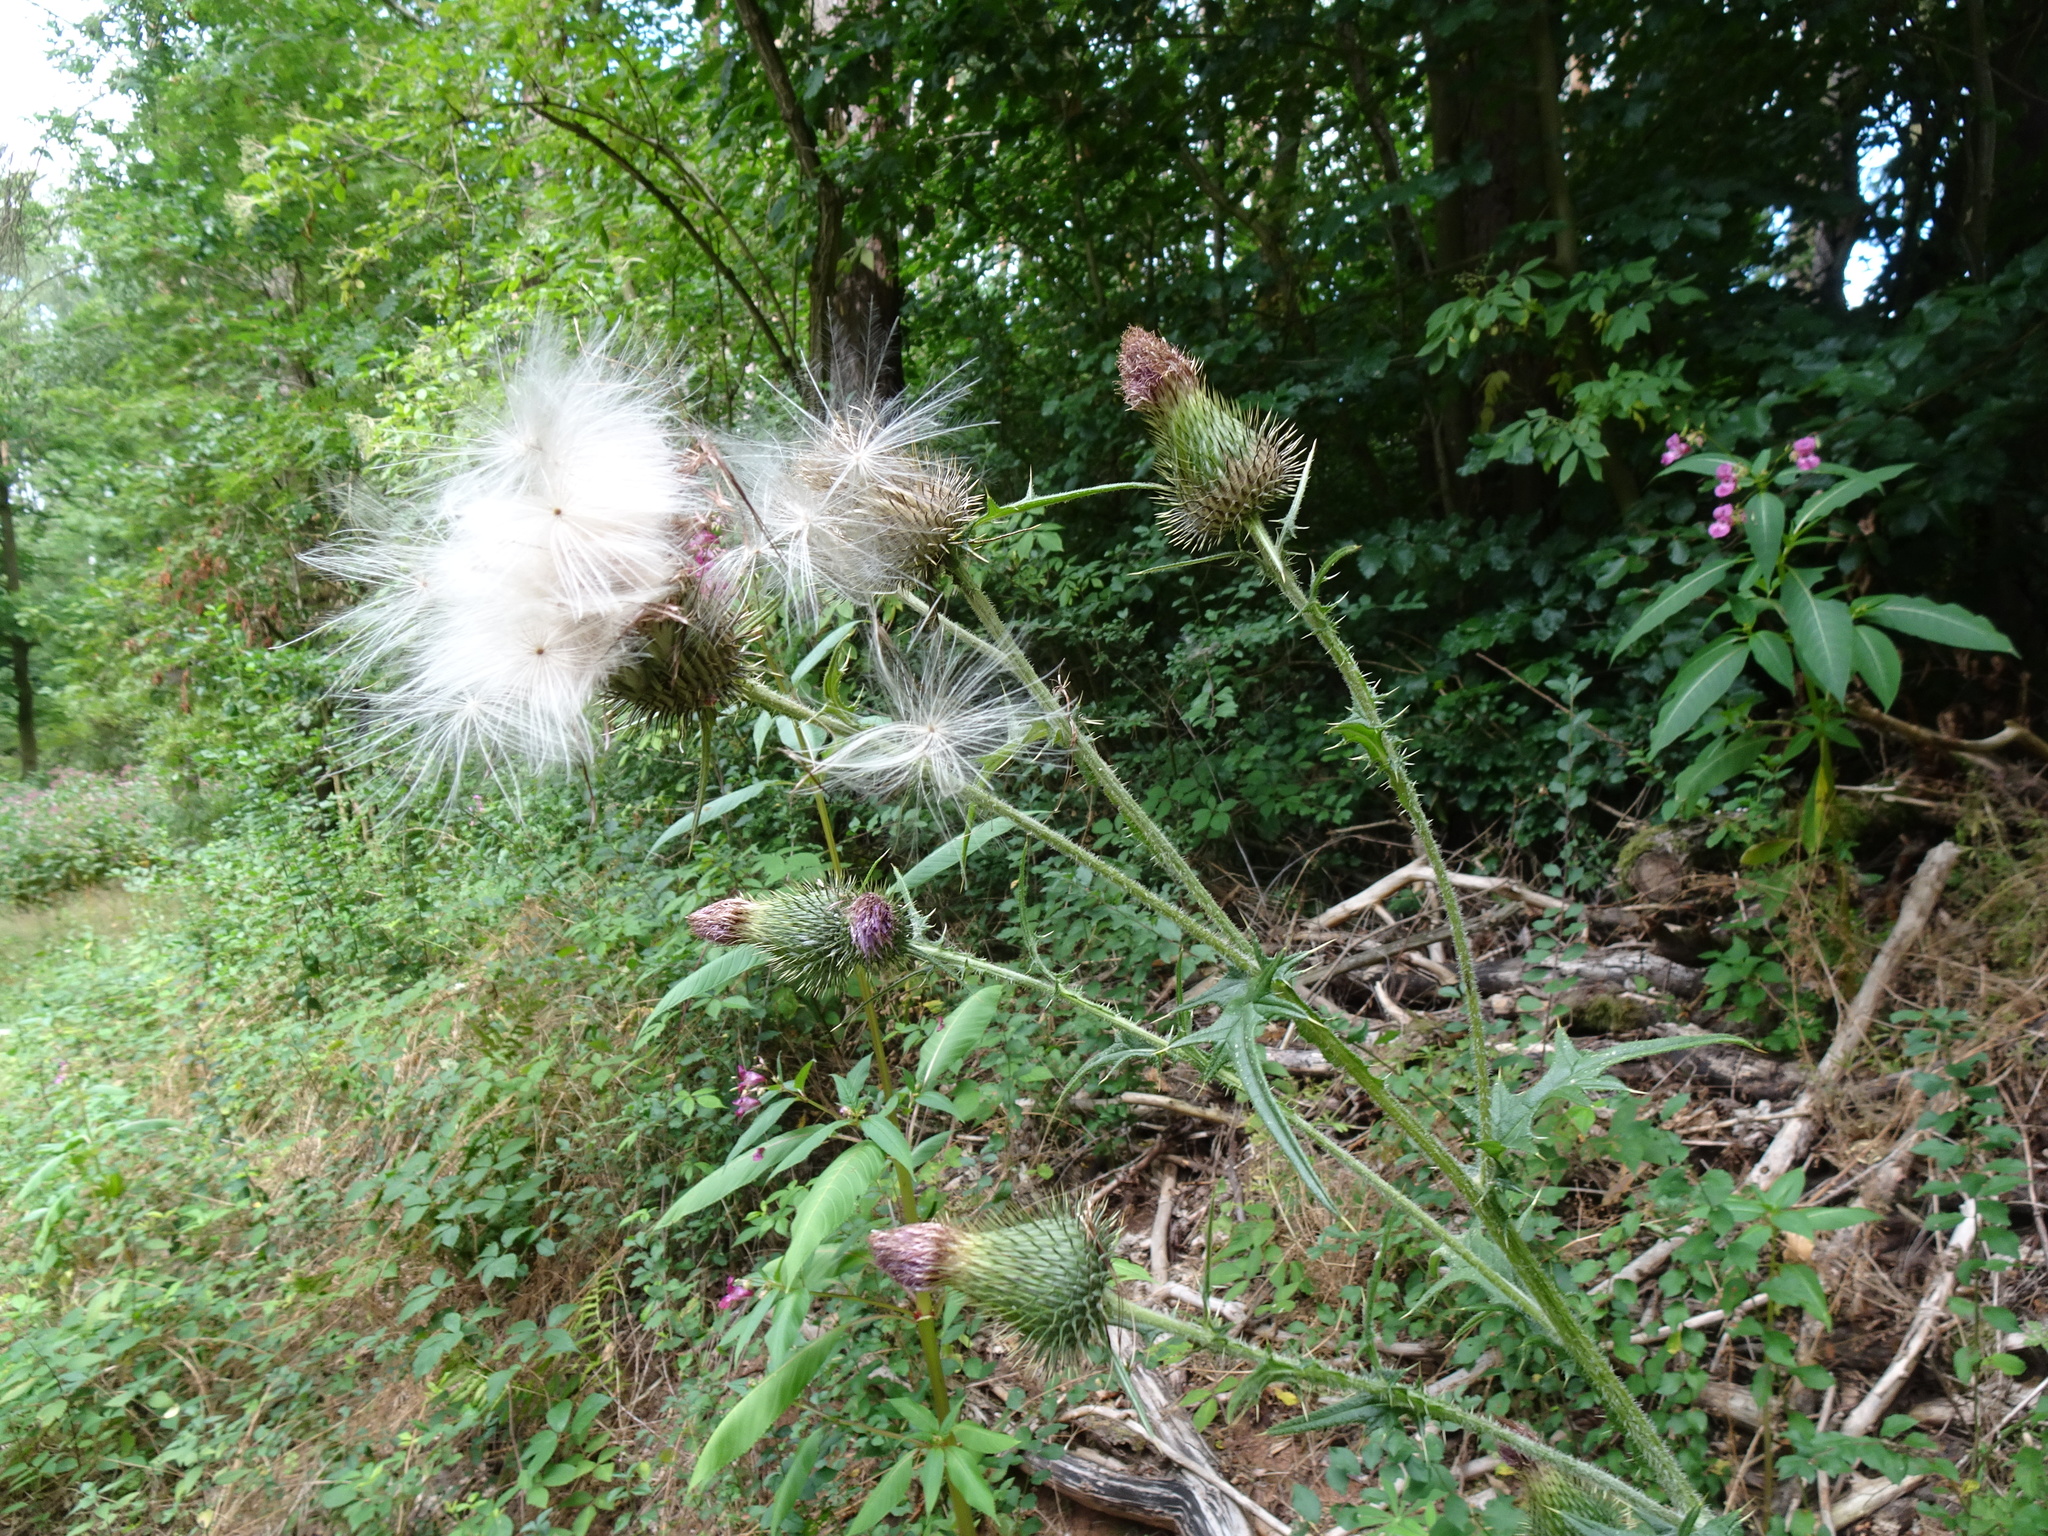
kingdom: Plantae
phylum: Tracheophyta
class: Magnoliopsida
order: Asterales
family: Asteraceae
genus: Cirsium
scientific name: Cirsium vulgare
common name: Bull thistle
